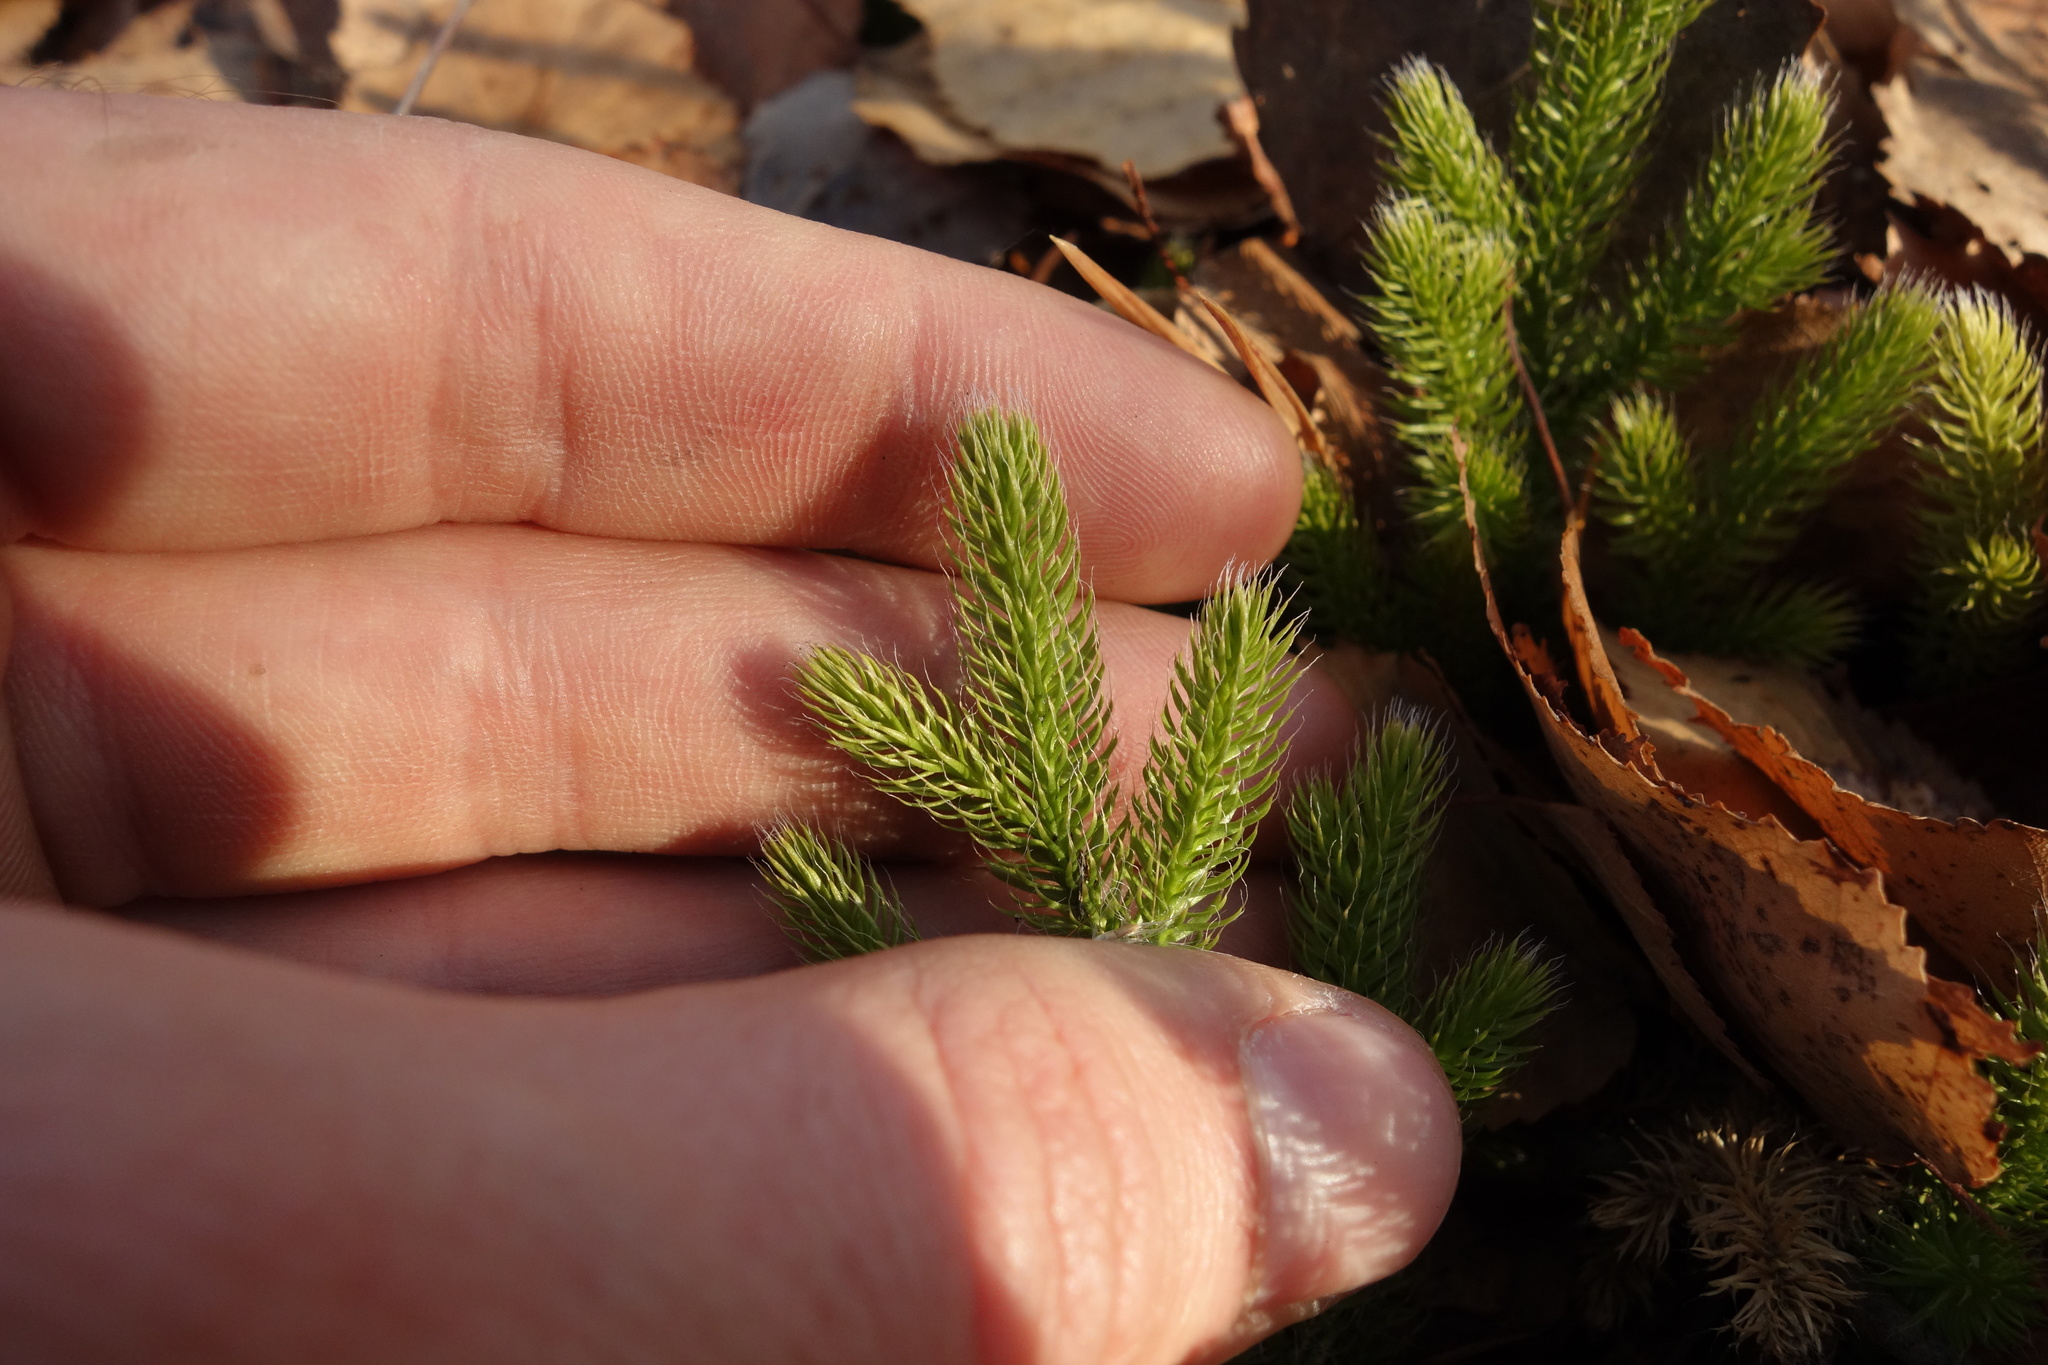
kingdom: Plantae
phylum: Tracheophyta
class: Lycopodiopsida
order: Lycopodiales
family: Lycopodiaceae
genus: Lycopodium
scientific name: Lycopodium clavatum
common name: Stag's-horn clubmoss
